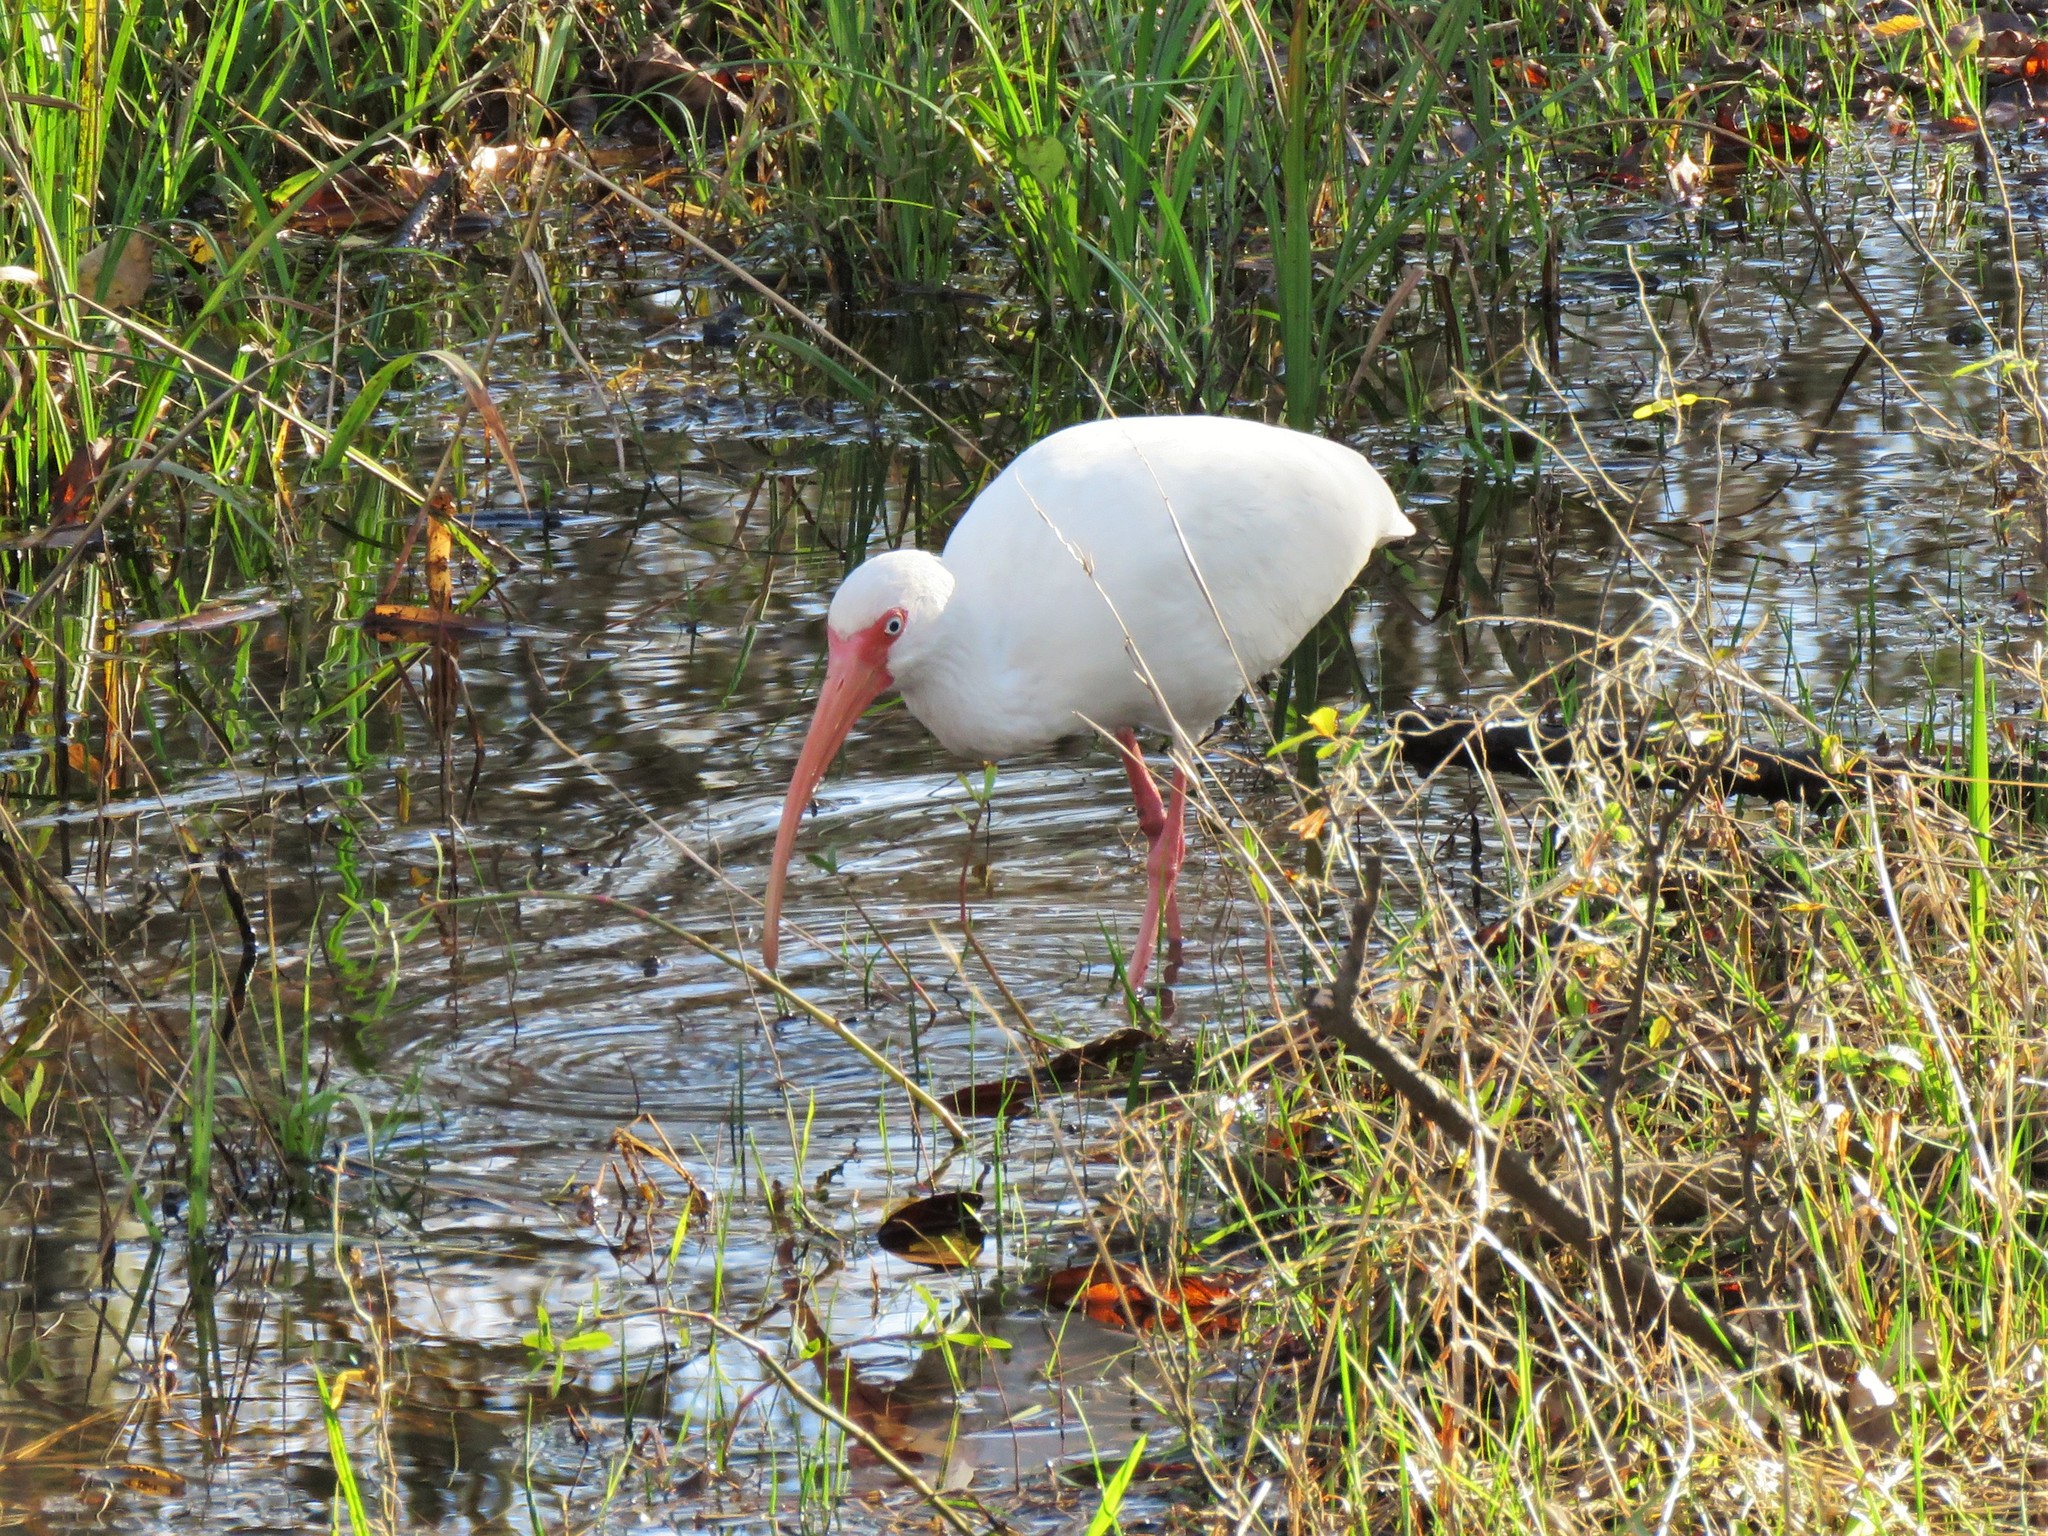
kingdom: Animalia
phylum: Chordata
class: Aves
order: Pelecaniformes
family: Threskiornithidae
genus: Eudocimus
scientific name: Eudocimus albus
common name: White ibis
